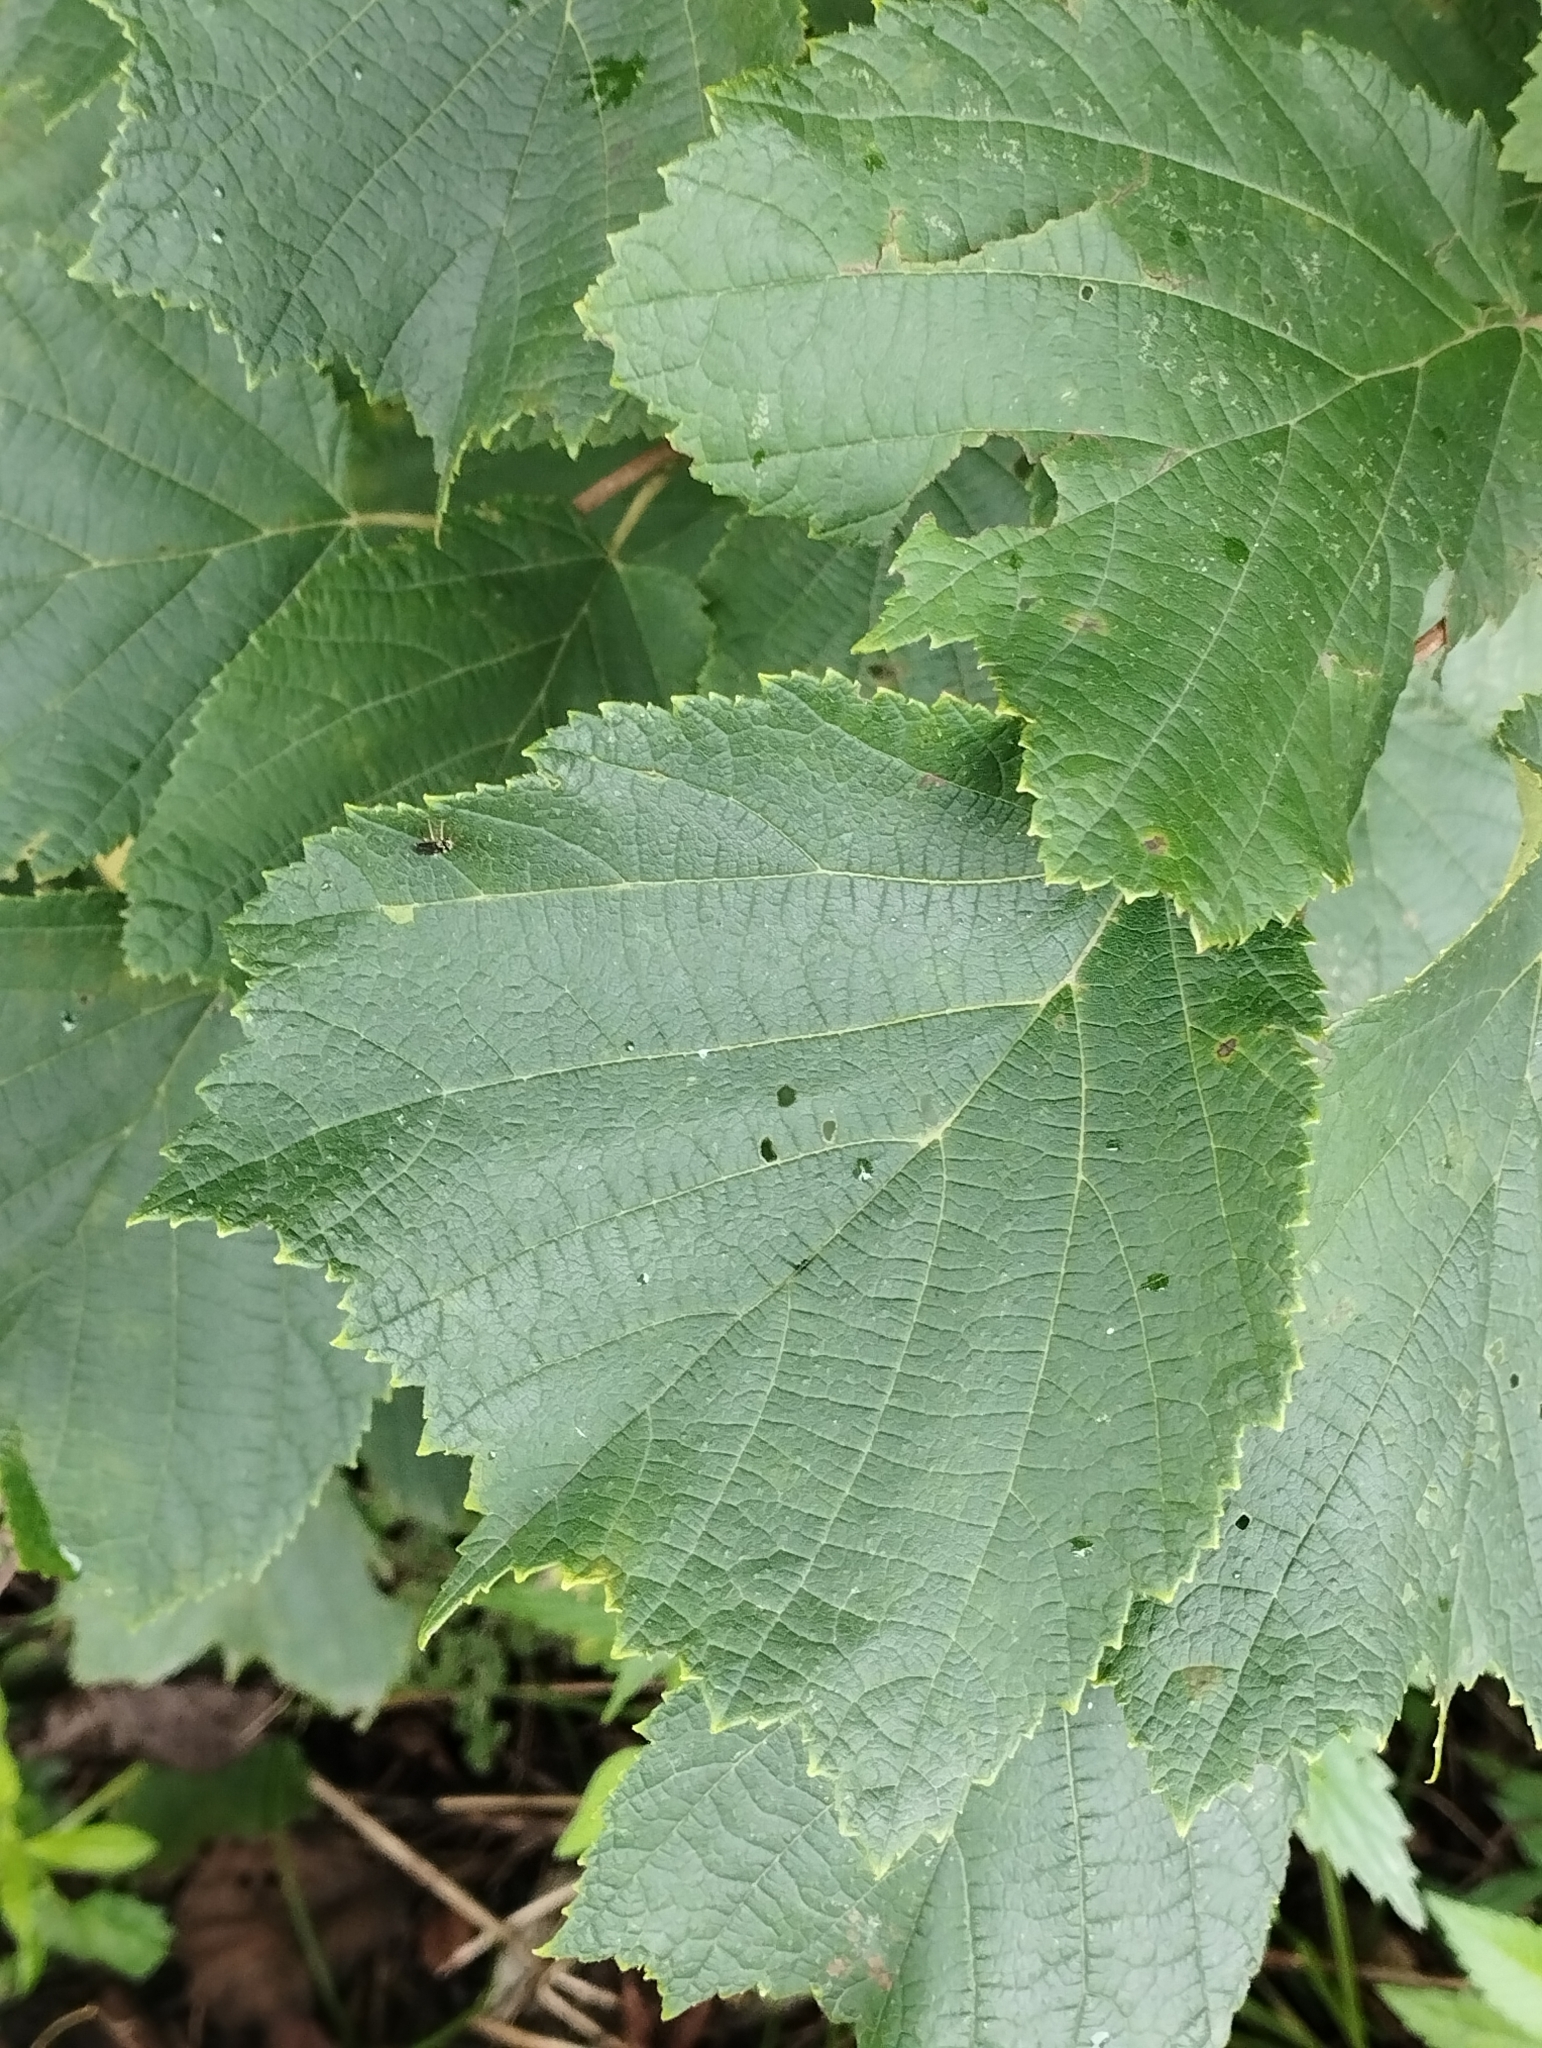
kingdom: Plantae
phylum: Tracheophyta
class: Magnoliopsida
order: Fagales
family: Betulaceae
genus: Corylus
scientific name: Corylus heterophylla
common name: Siberian hazelnut
